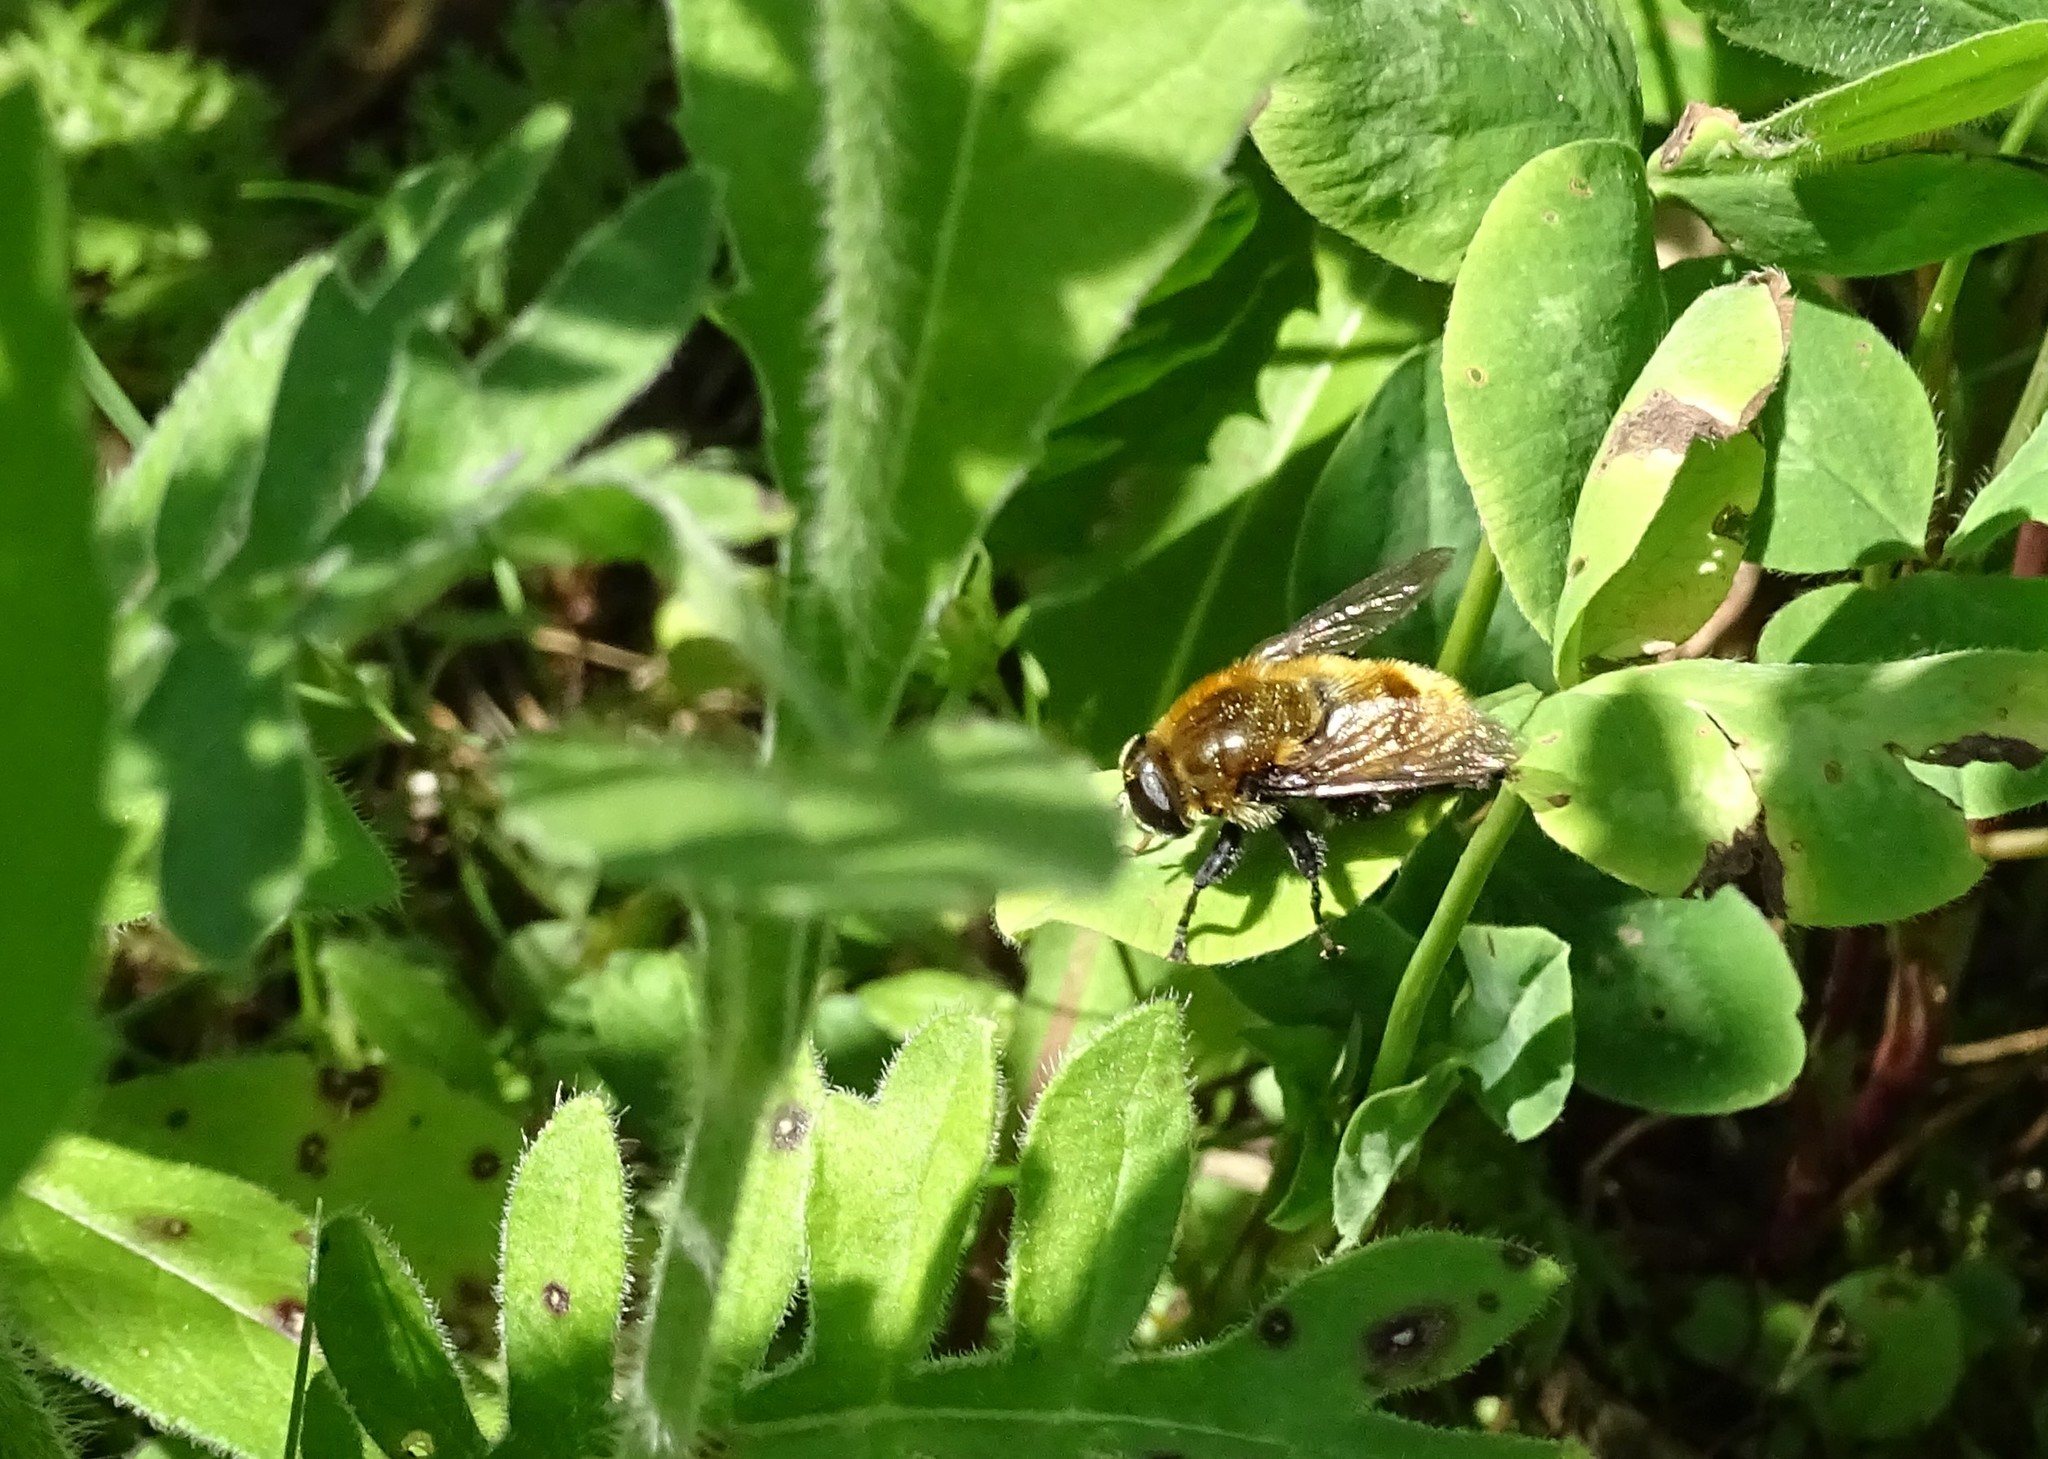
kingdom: Animalia
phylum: Arthropoda
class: Insecta
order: Diptera
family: Syrphidae
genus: Merodon
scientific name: Merodon equestris
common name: Greater bulb-fly
